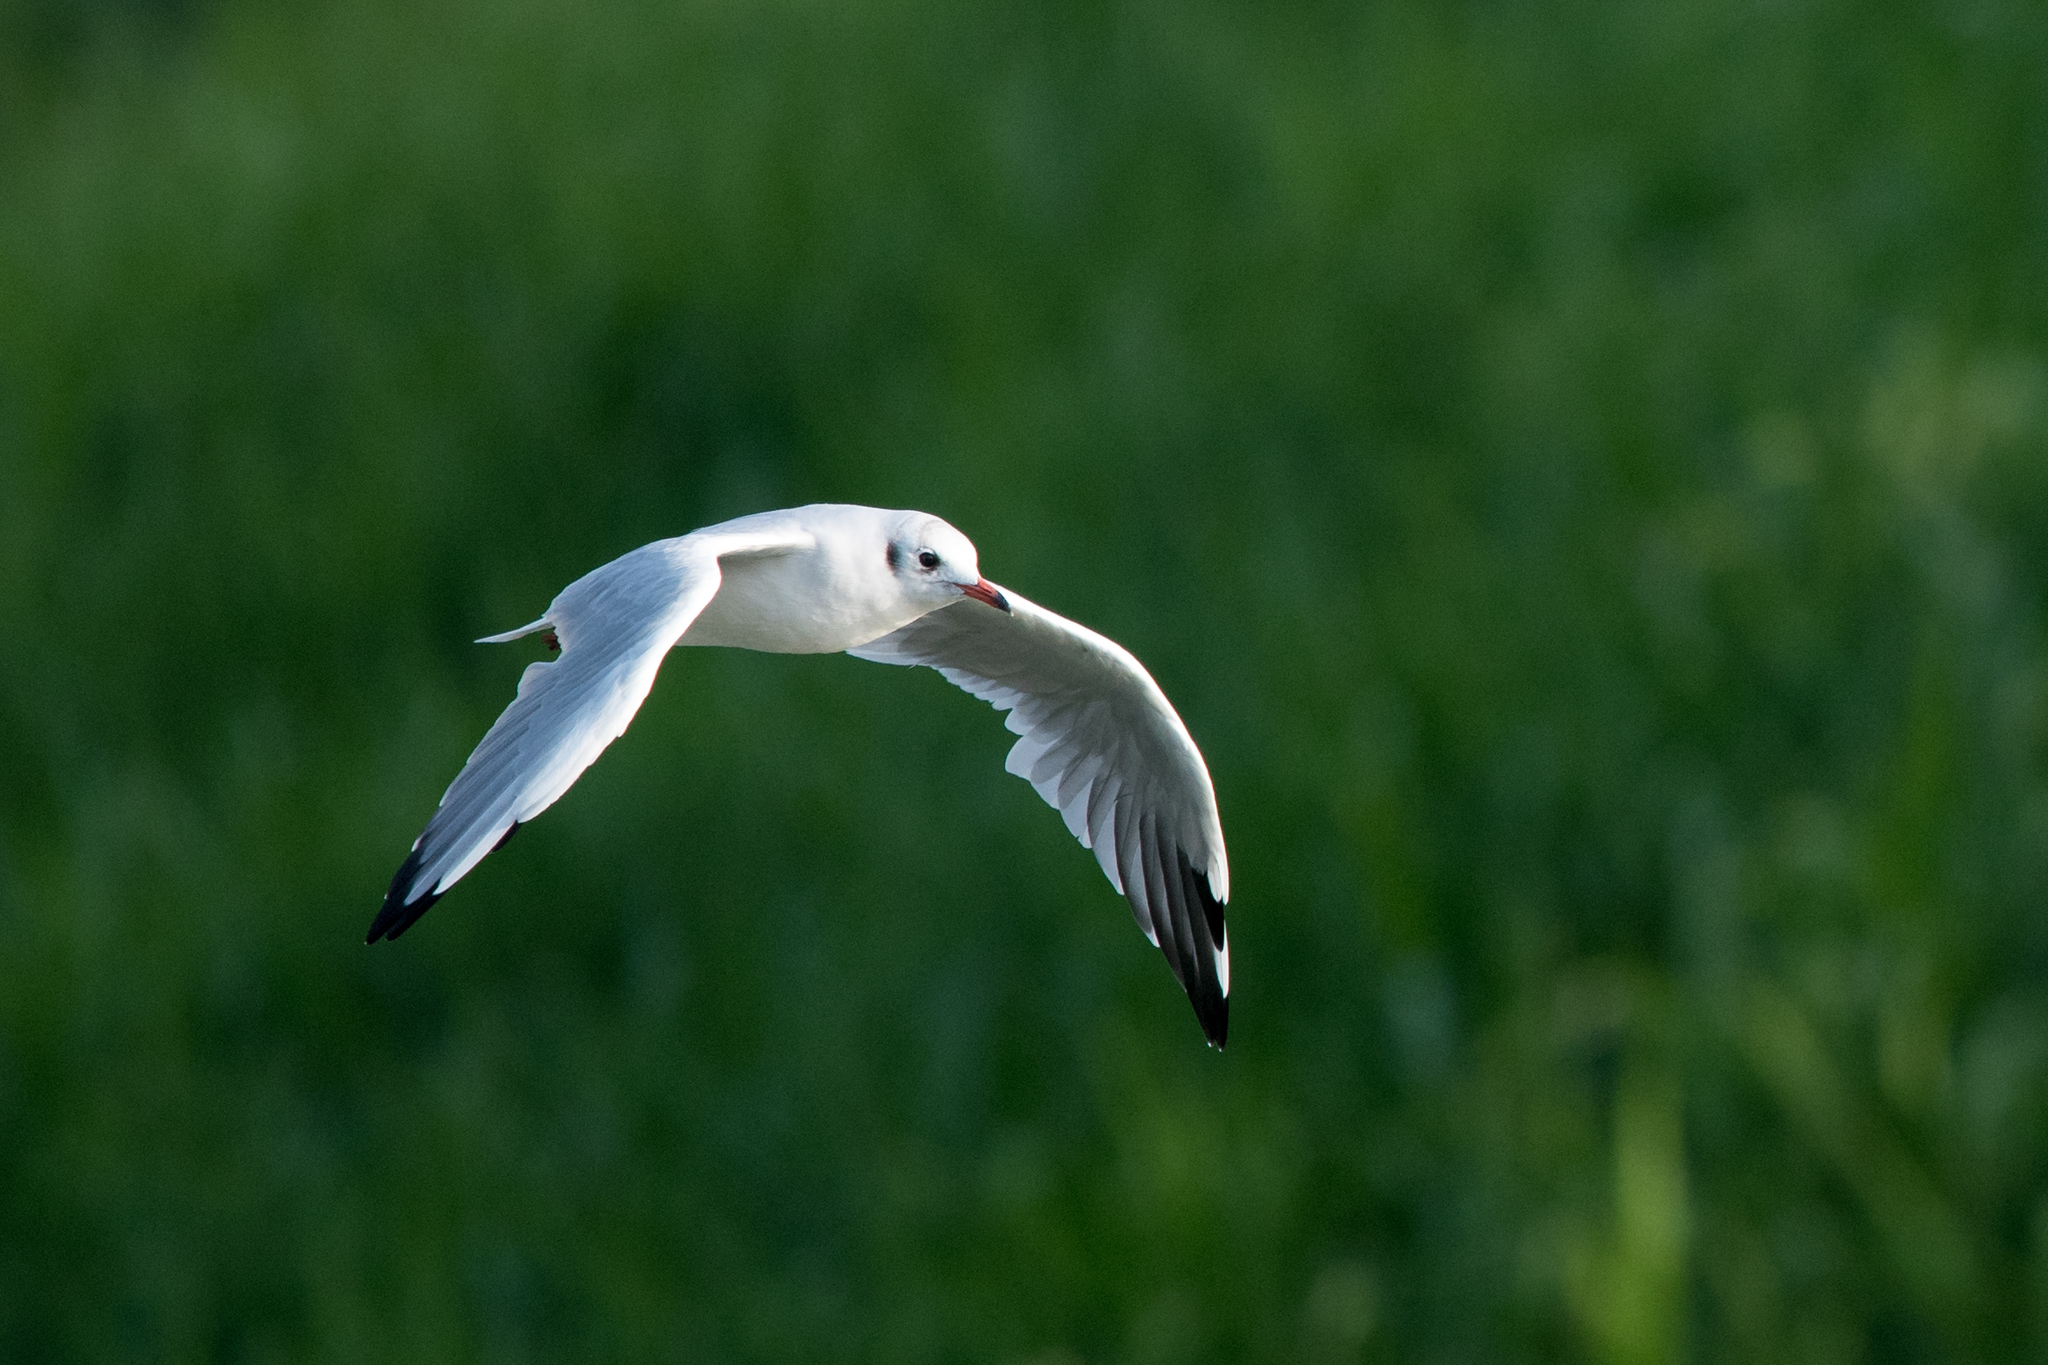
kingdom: Animalia
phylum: Chordata
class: Aves
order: Charadriiformes
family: Laridae
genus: Chroicocephalus
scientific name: Chroicocephalus ridibundus
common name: Black-headed gull
